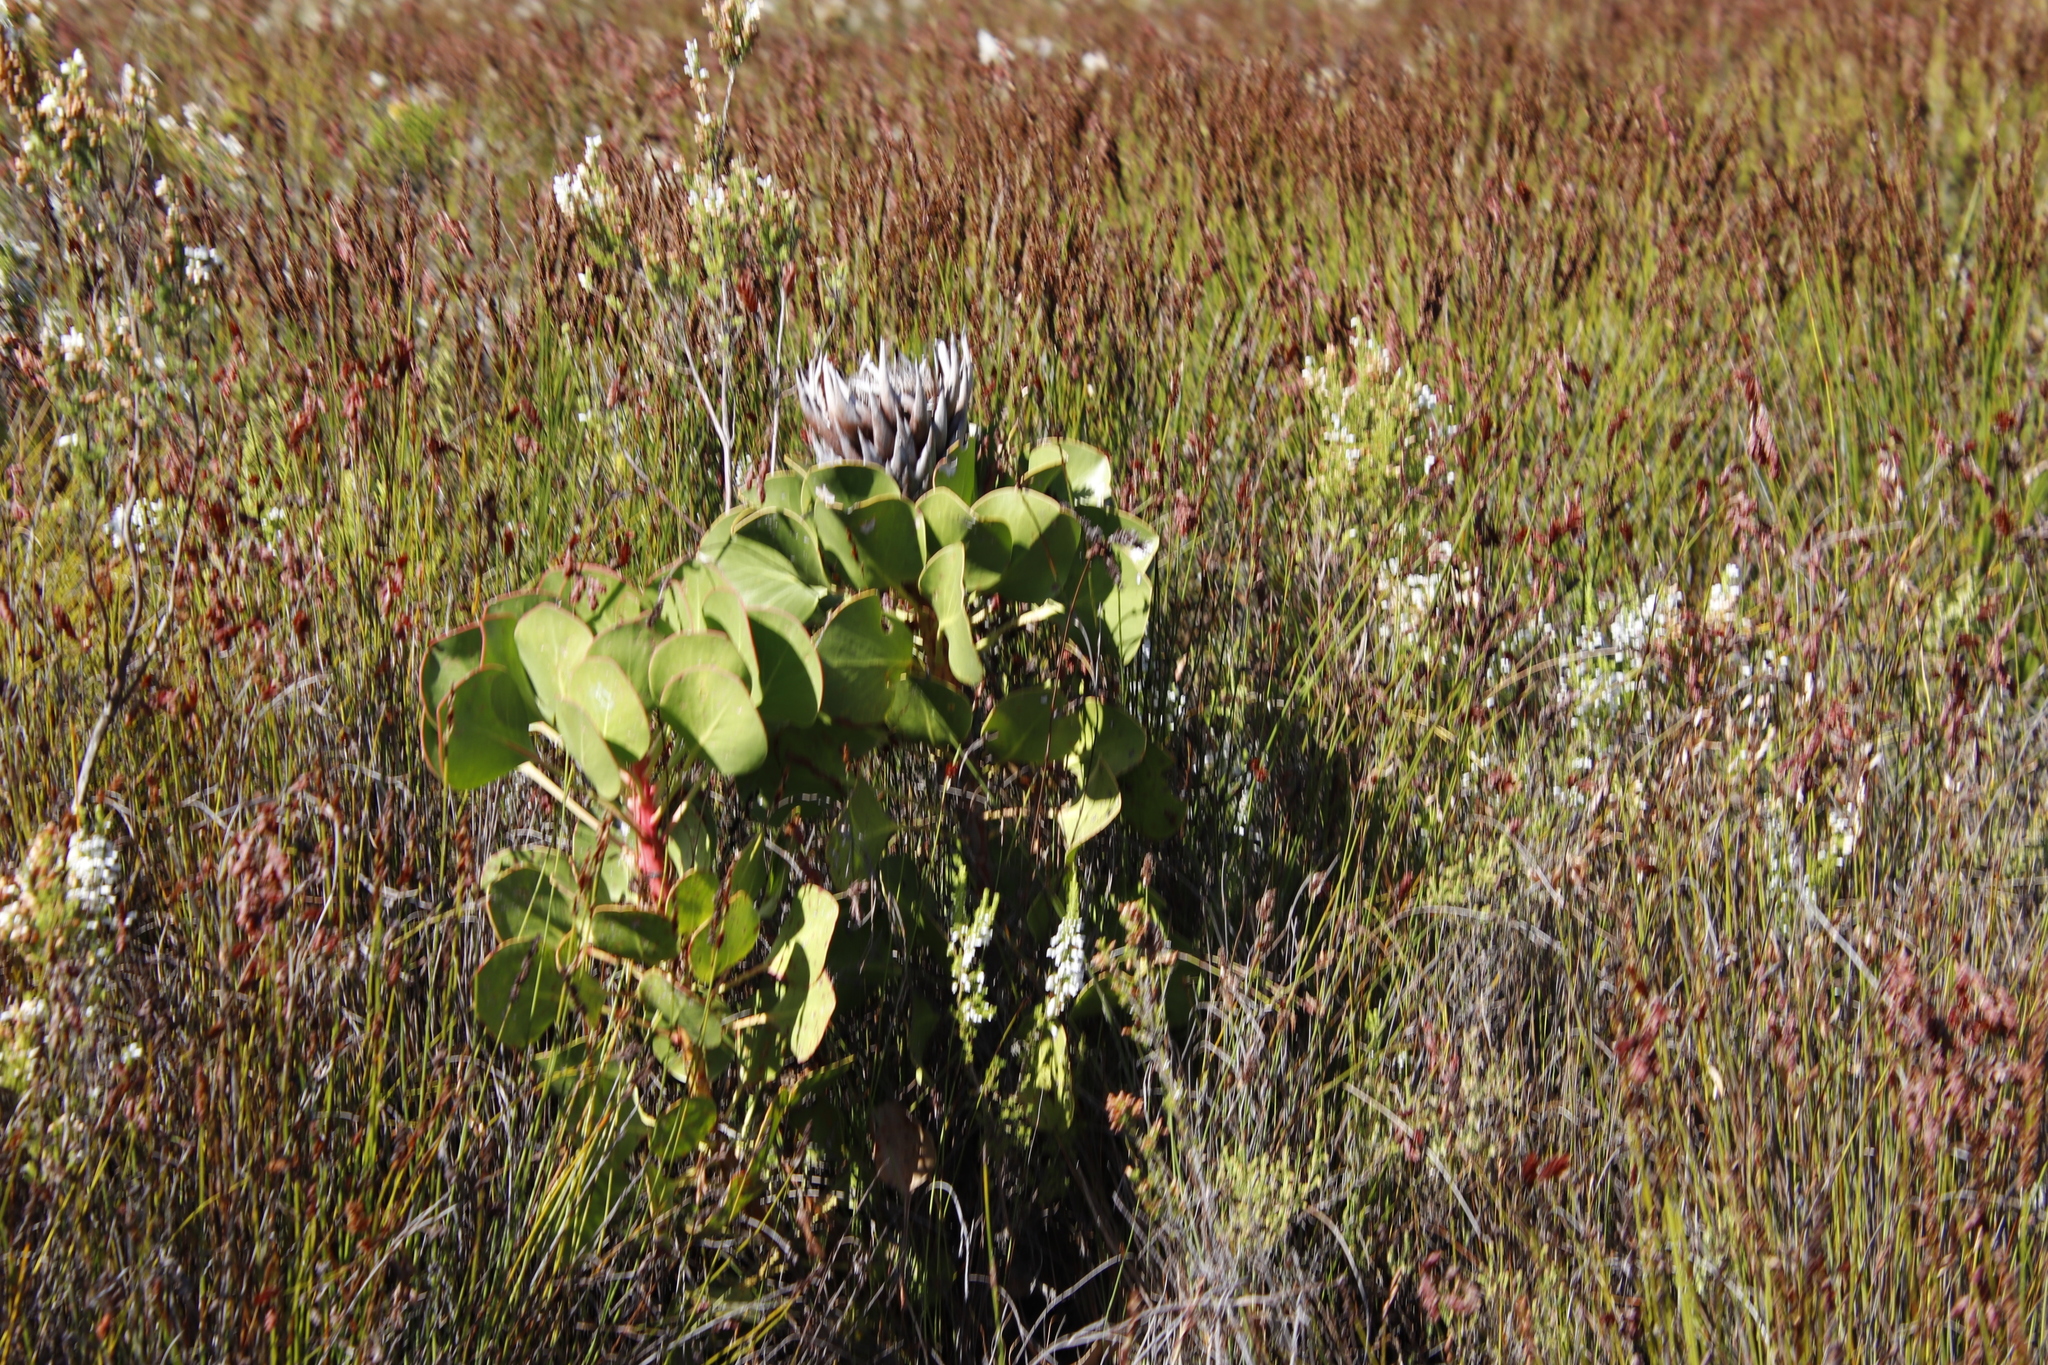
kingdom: Plantae
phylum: Tracheophyta
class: Magnoliopsida
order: Proteales
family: Proteaceae
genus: Protea
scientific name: Protea cynaroides
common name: King protea
